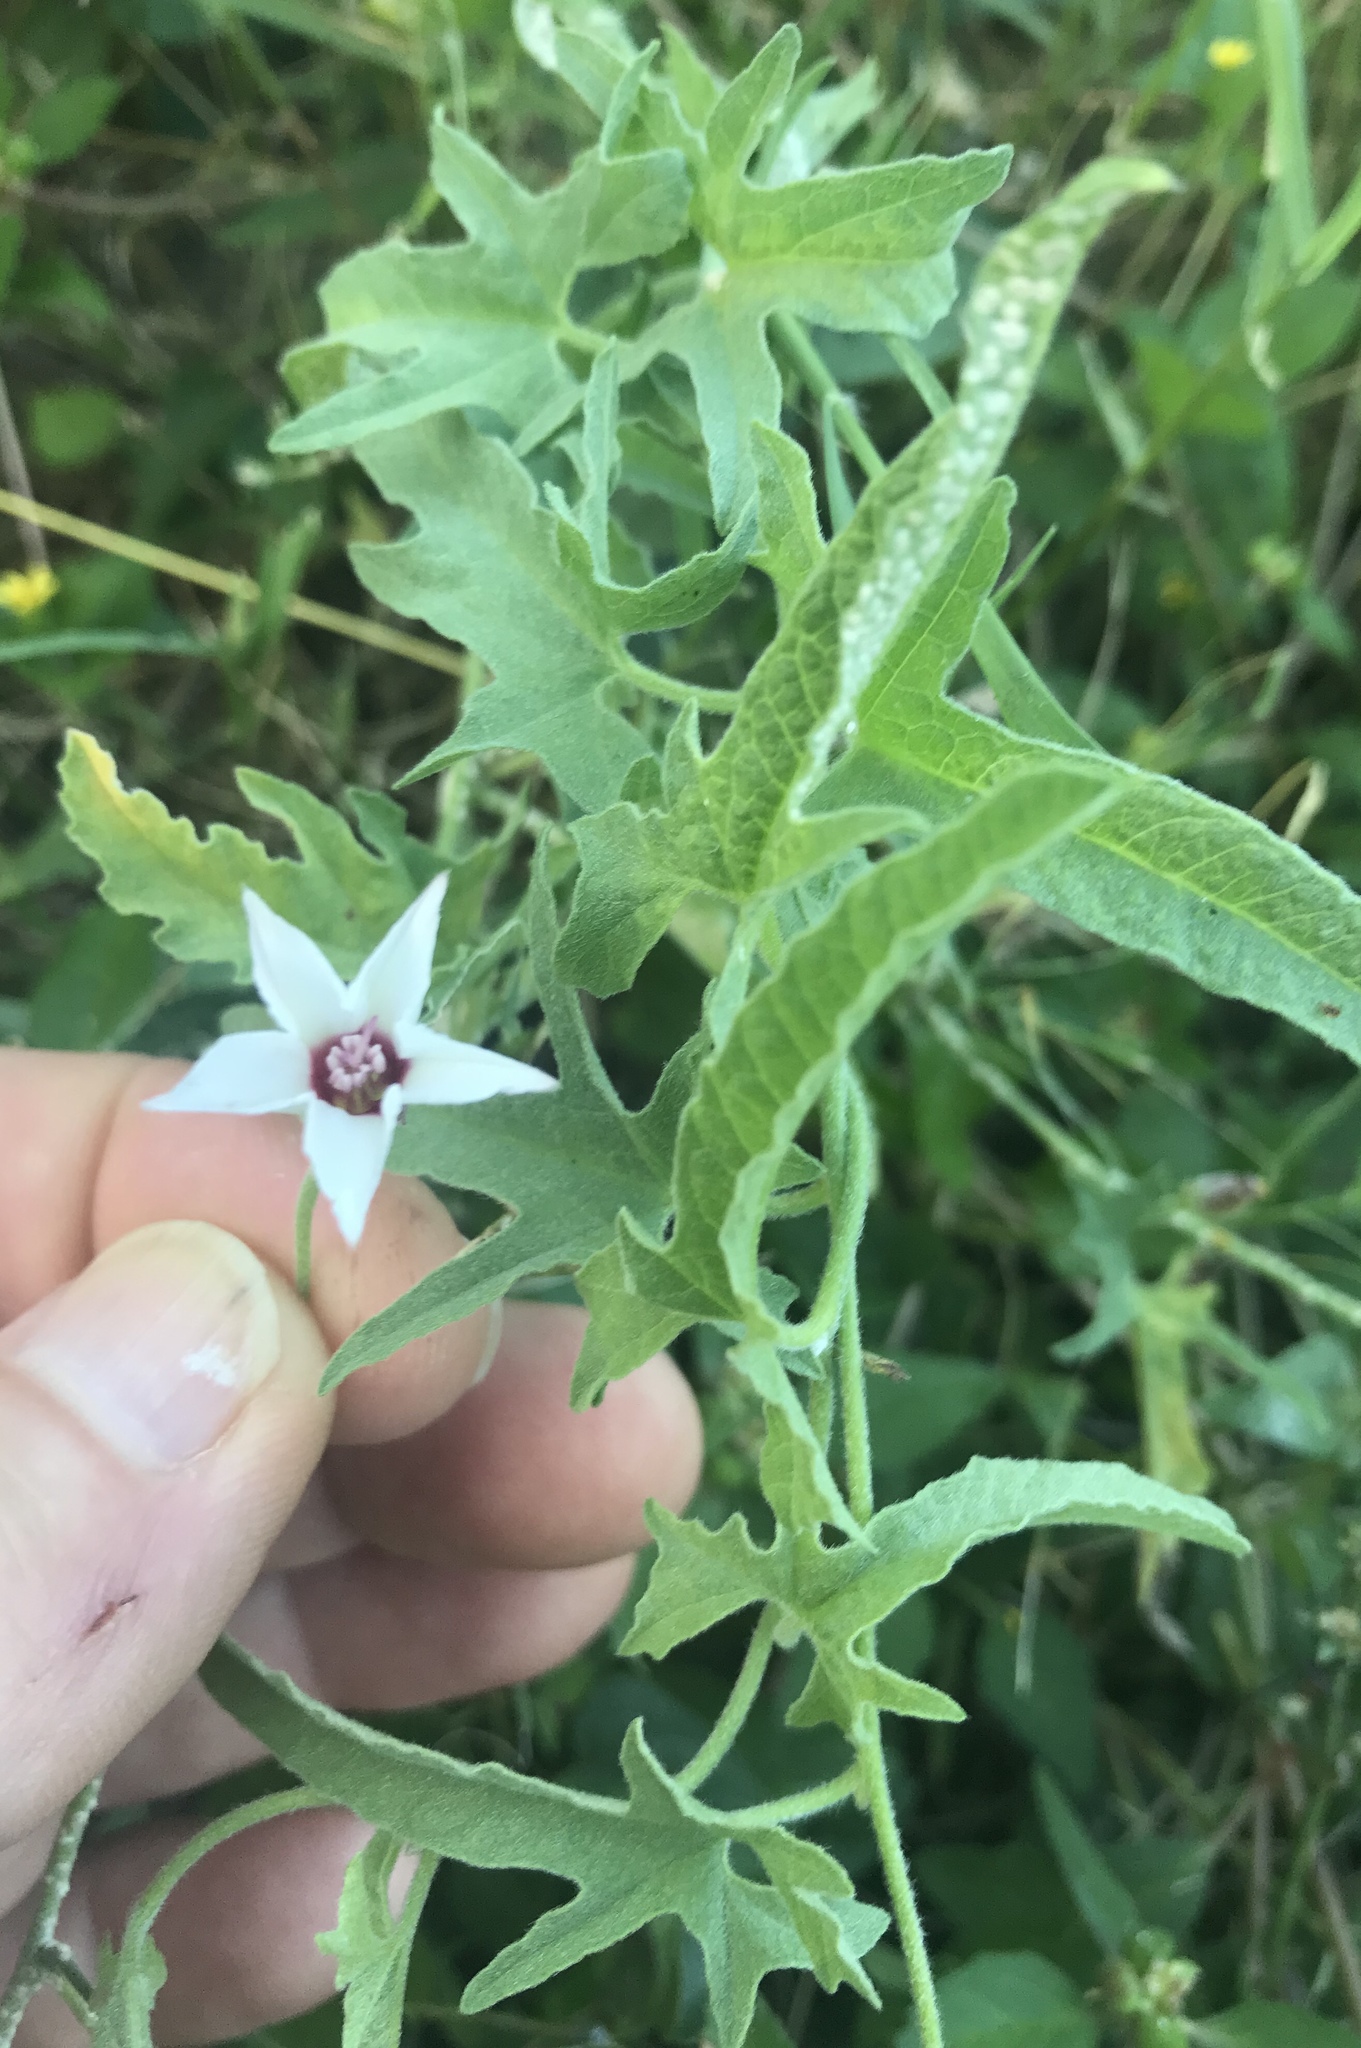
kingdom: Plantae
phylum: Tracheophyta
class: Magnoliopsida
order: Solanales
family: Convolvulaceae
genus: Convolvulus
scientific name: Convolvulus equitans
